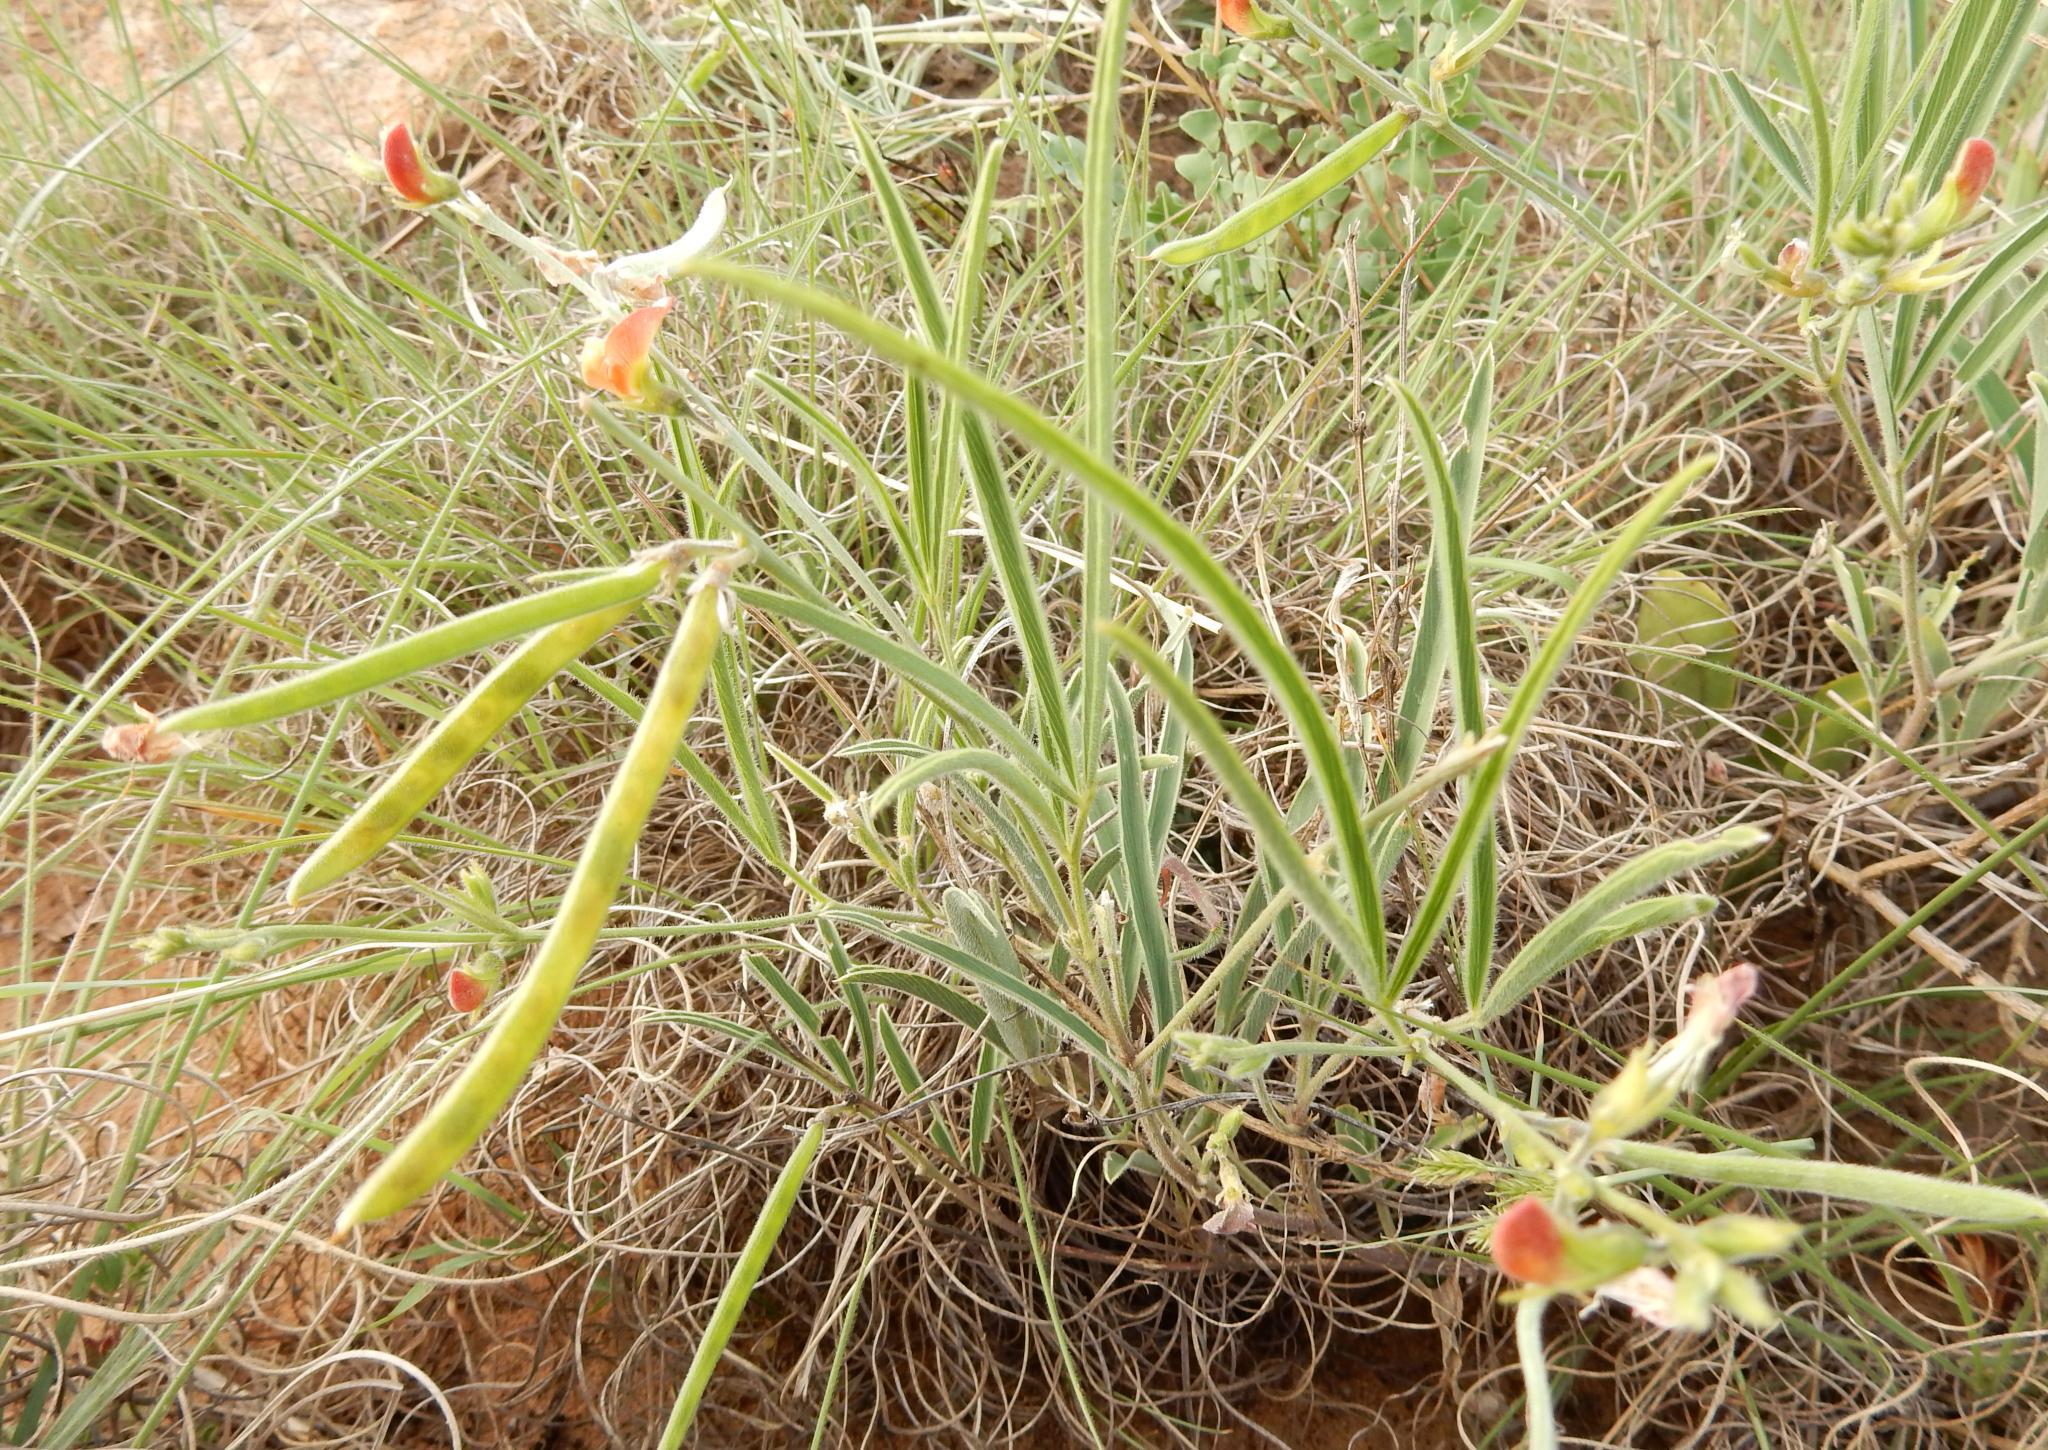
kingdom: Plantae
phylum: Tracheophyta
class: Magnoliopsida
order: Fabales
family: Fabaceae
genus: Tephrosia
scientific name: Tephrosia elongata
